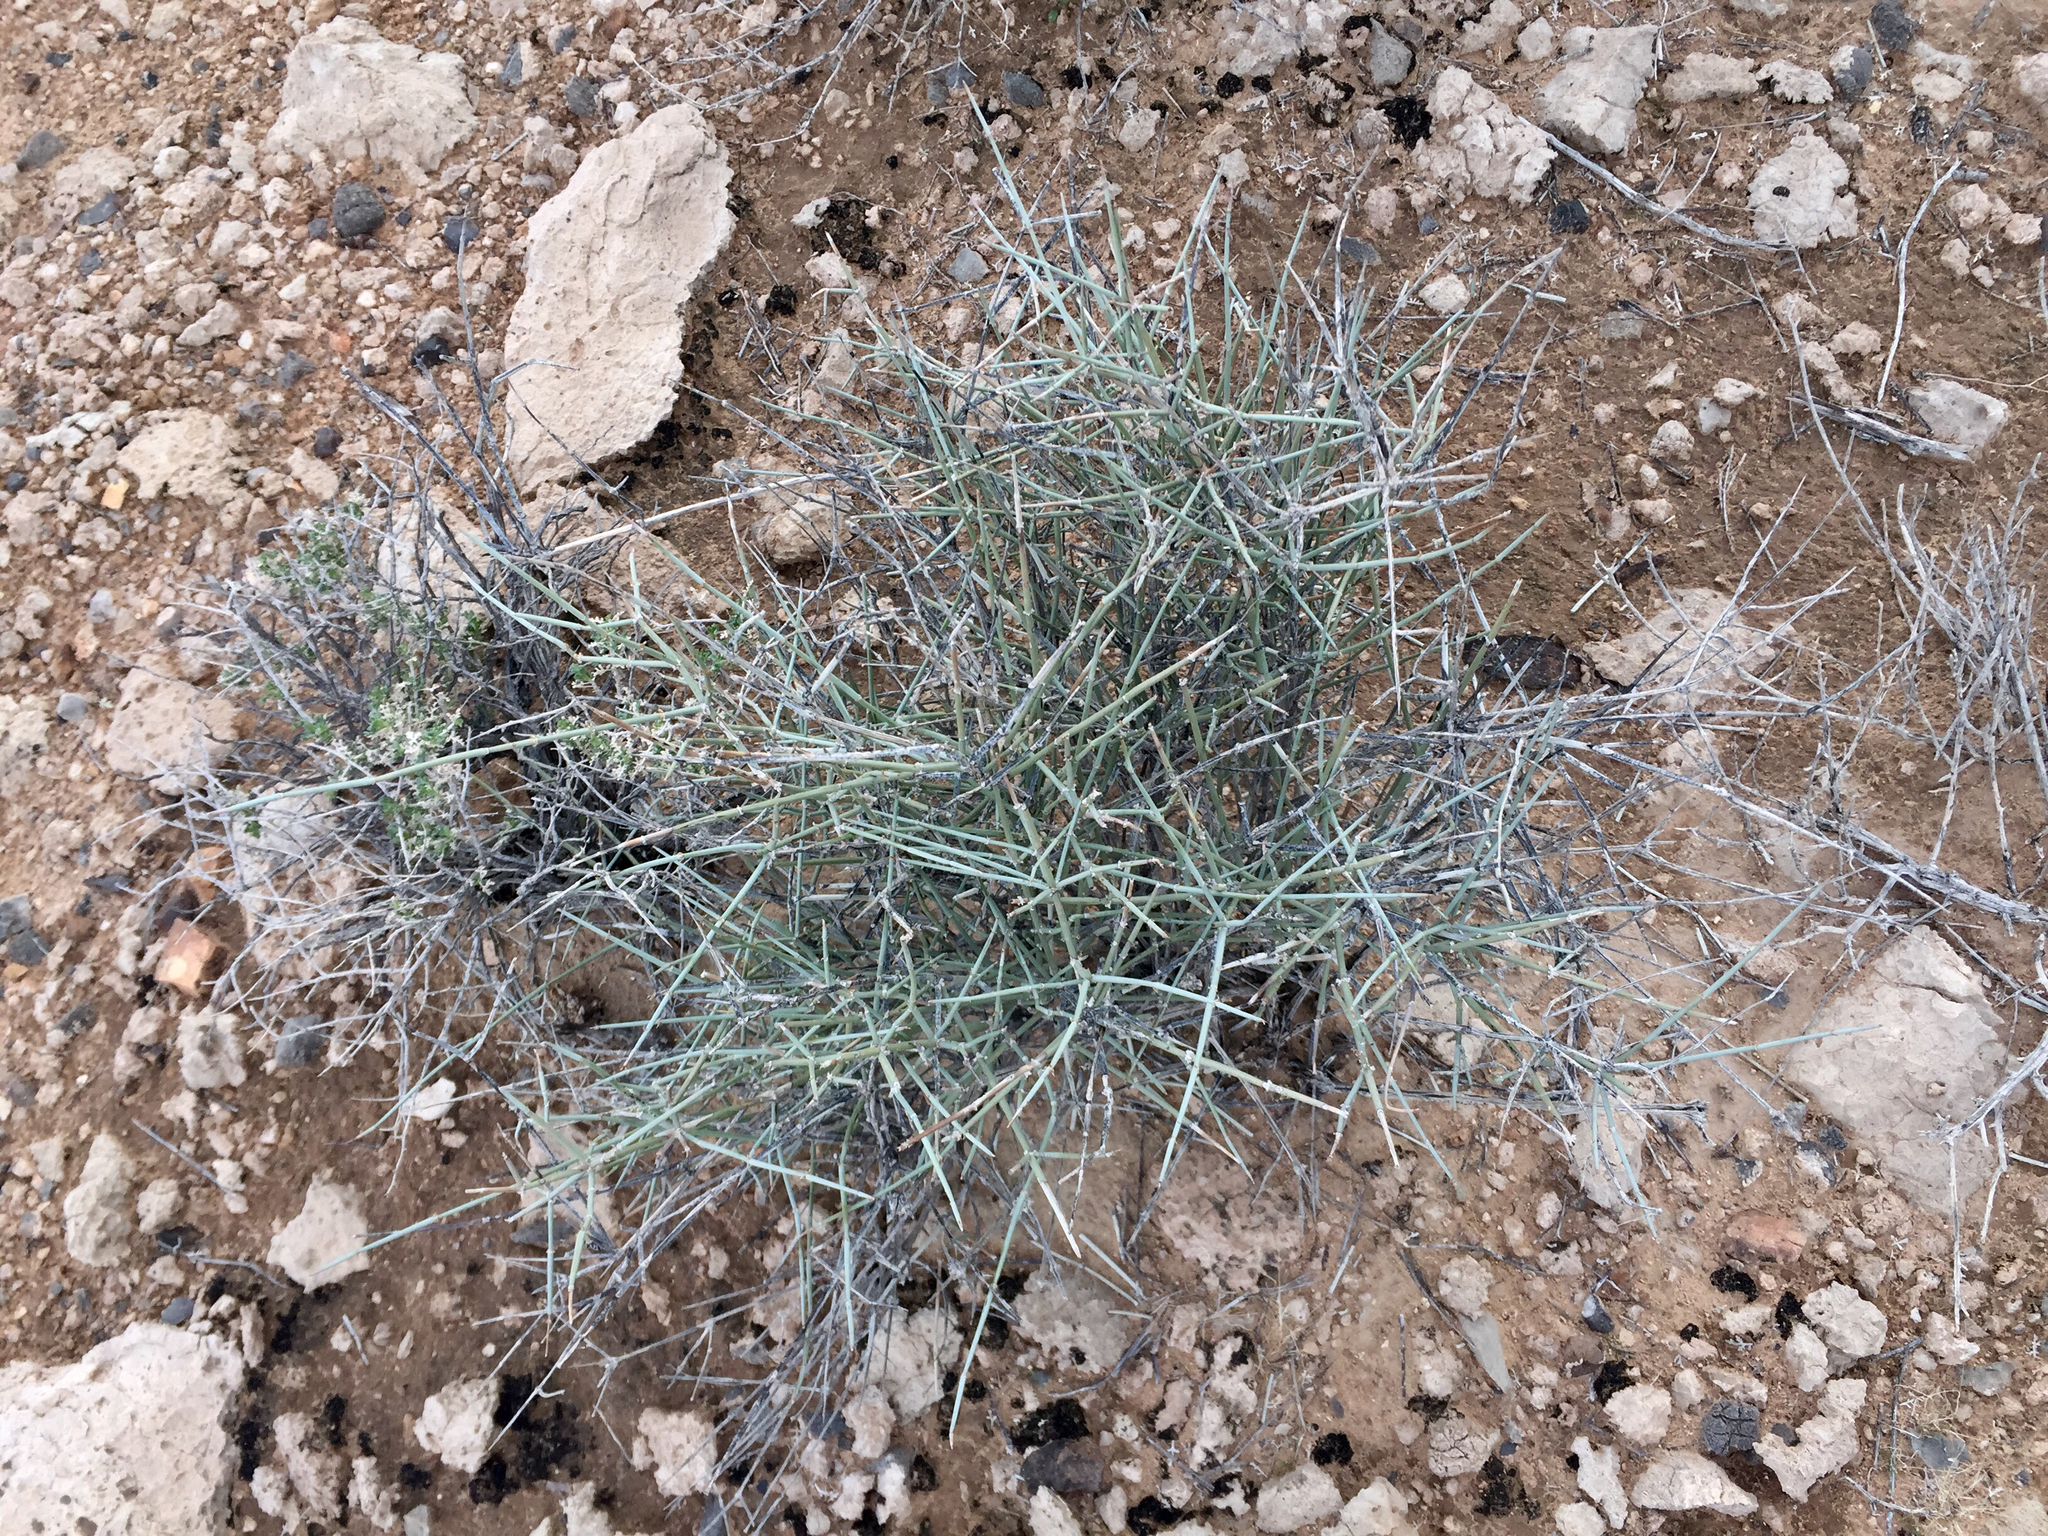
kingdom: Plantae
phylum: Tracheophyta
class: Gnetopsida
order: Ephedrales
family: Ephedraceae
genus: Ephedra
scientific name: Ephedra nevadensis
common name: Gray ephedra
